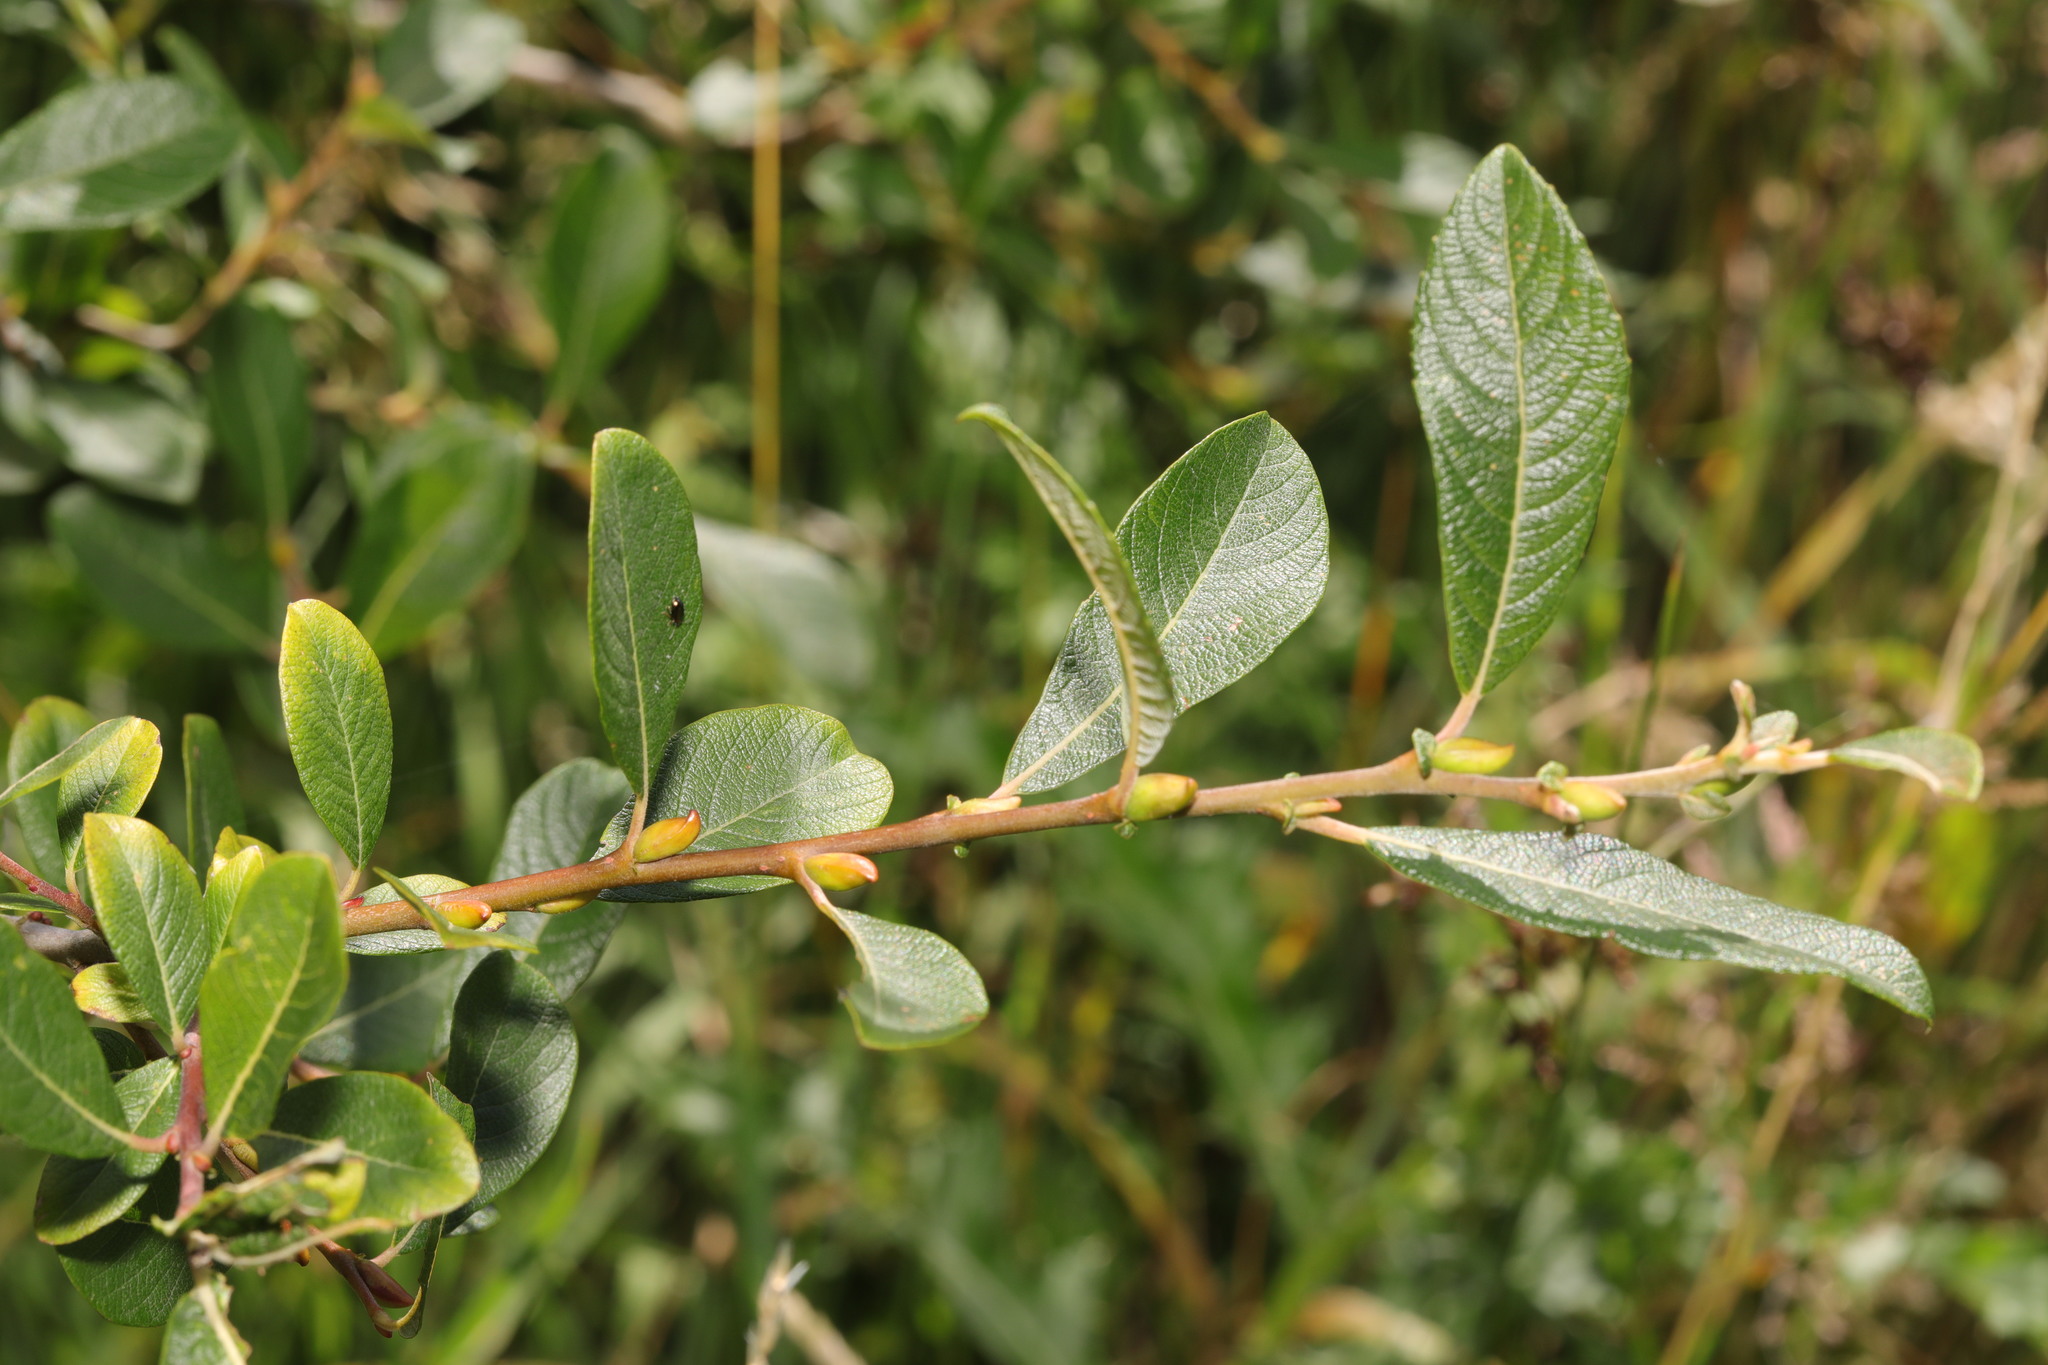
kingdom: Plantae
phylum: Tracheophyta
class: Magnoliopsida
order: Malpighiales
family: Salicaceae
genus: Salix
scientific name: Salix cinerea
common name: Common sallow
